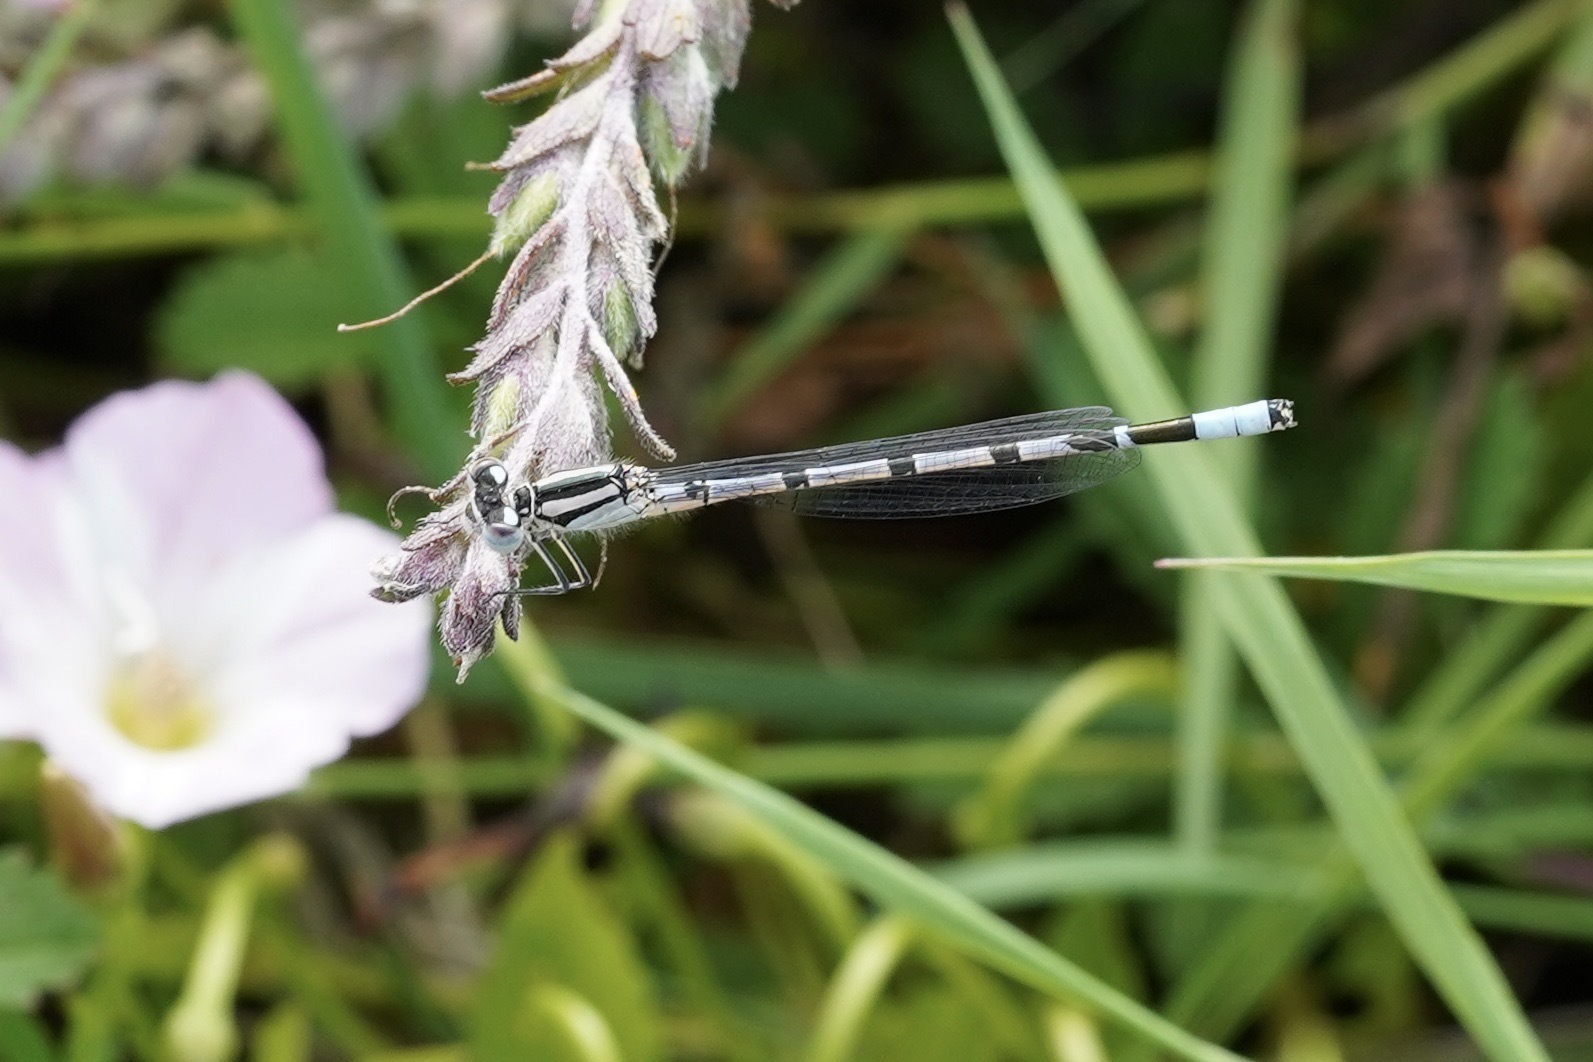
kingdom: Animalia
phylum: Arthropoda
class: Insecta
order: Odonata
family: Coenagrionidae
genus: Enallagma
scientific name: Enallagma cyathigerum
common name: Common blue damselfly
